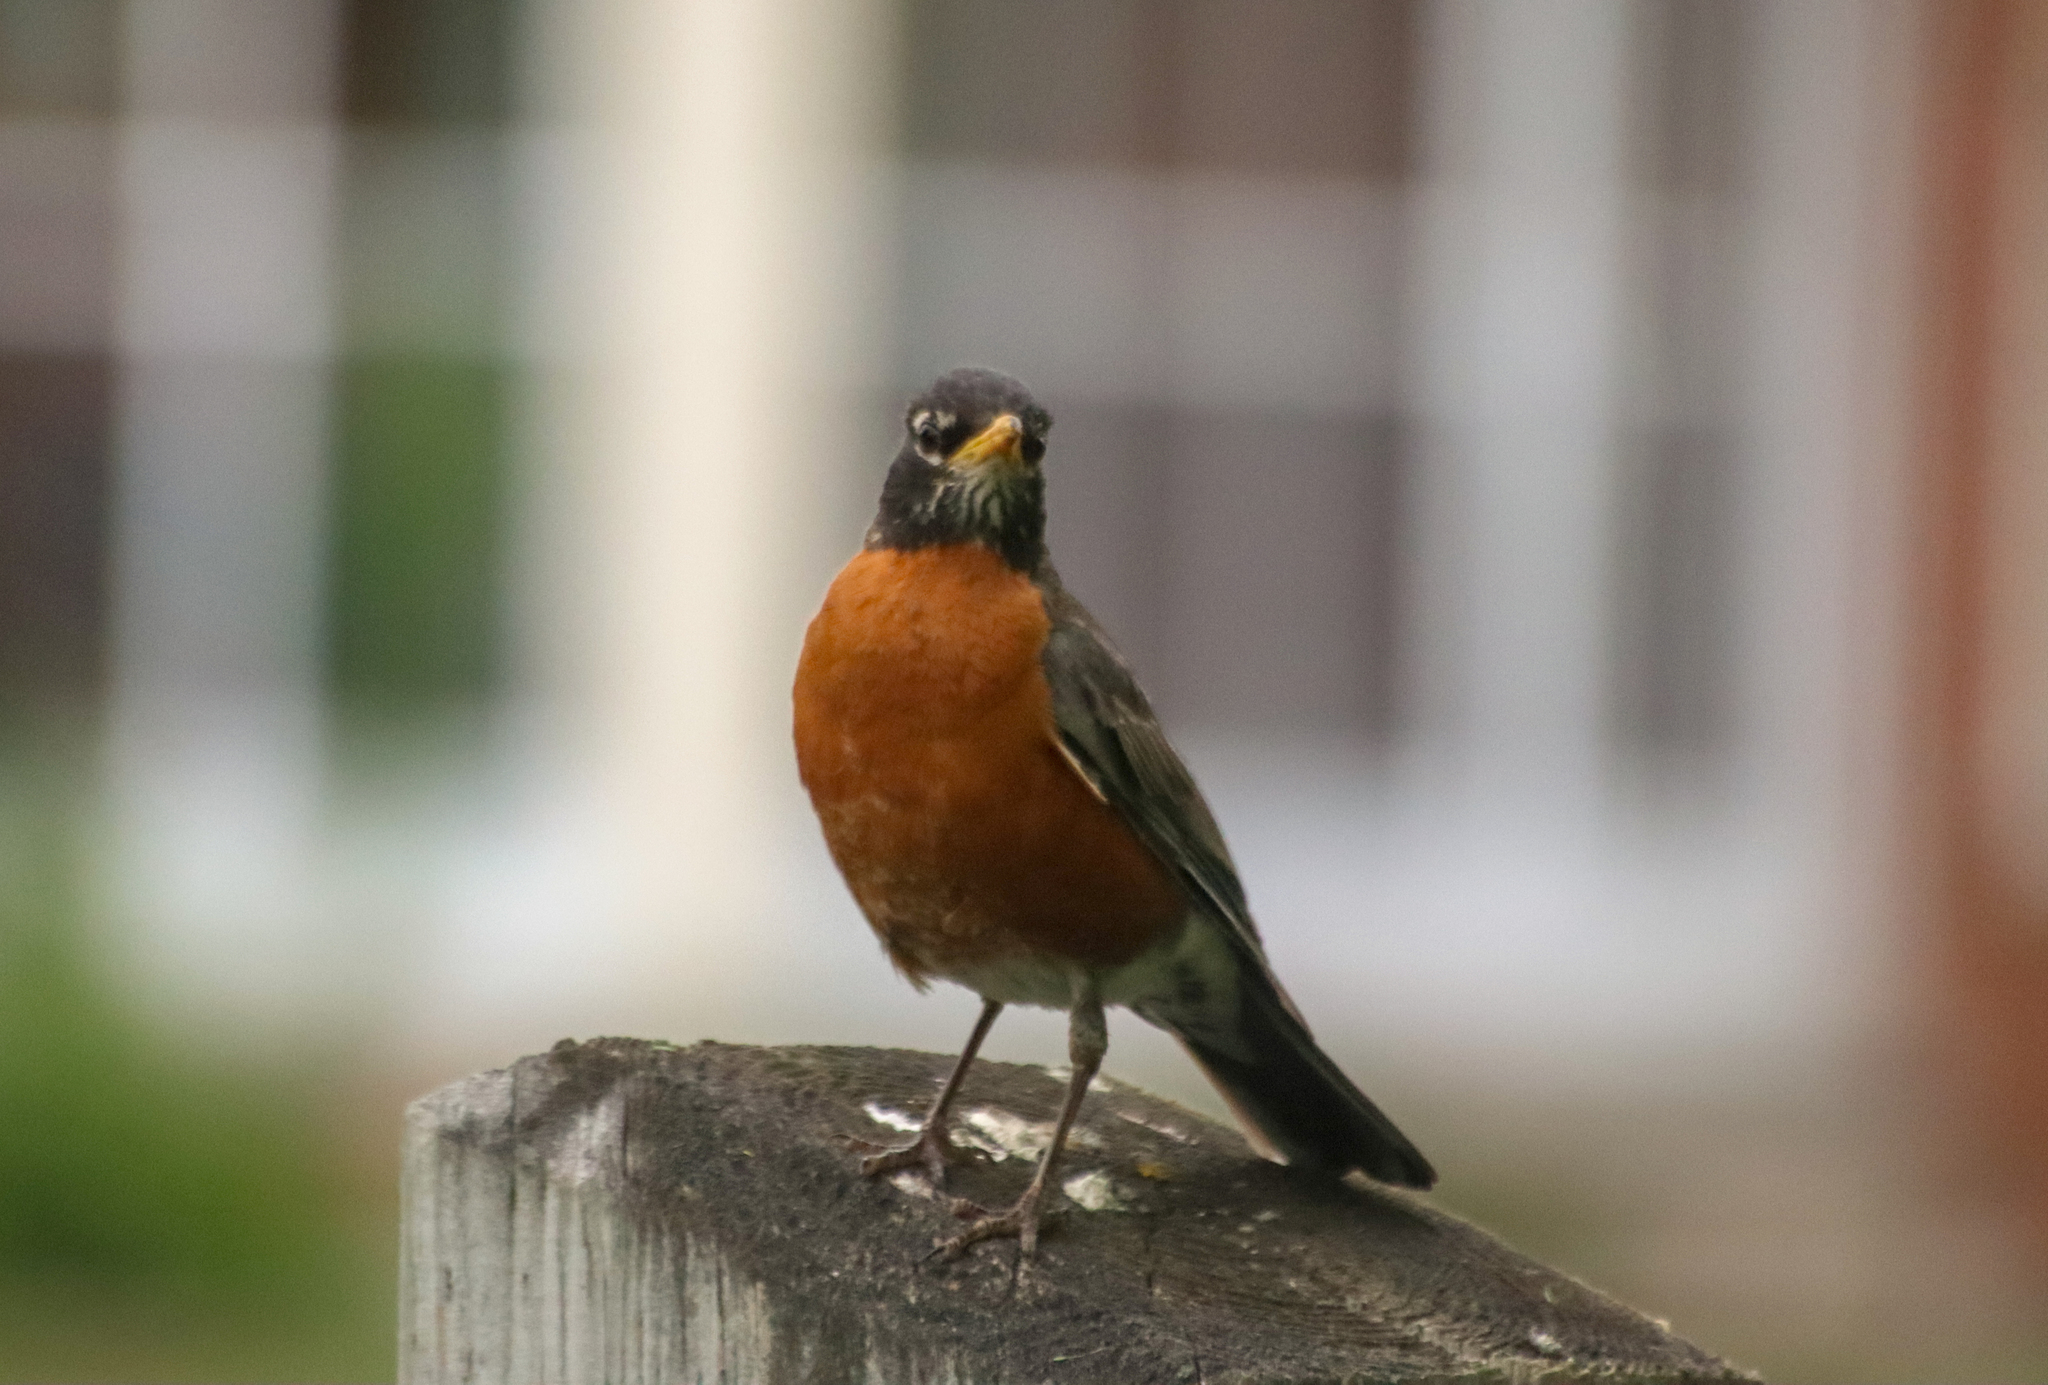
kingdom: Animalia
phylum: Chordata
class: Aves
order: Passeriformes
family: Turdidae
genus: Turdus
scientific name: Turdus migratorius
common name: American robin
